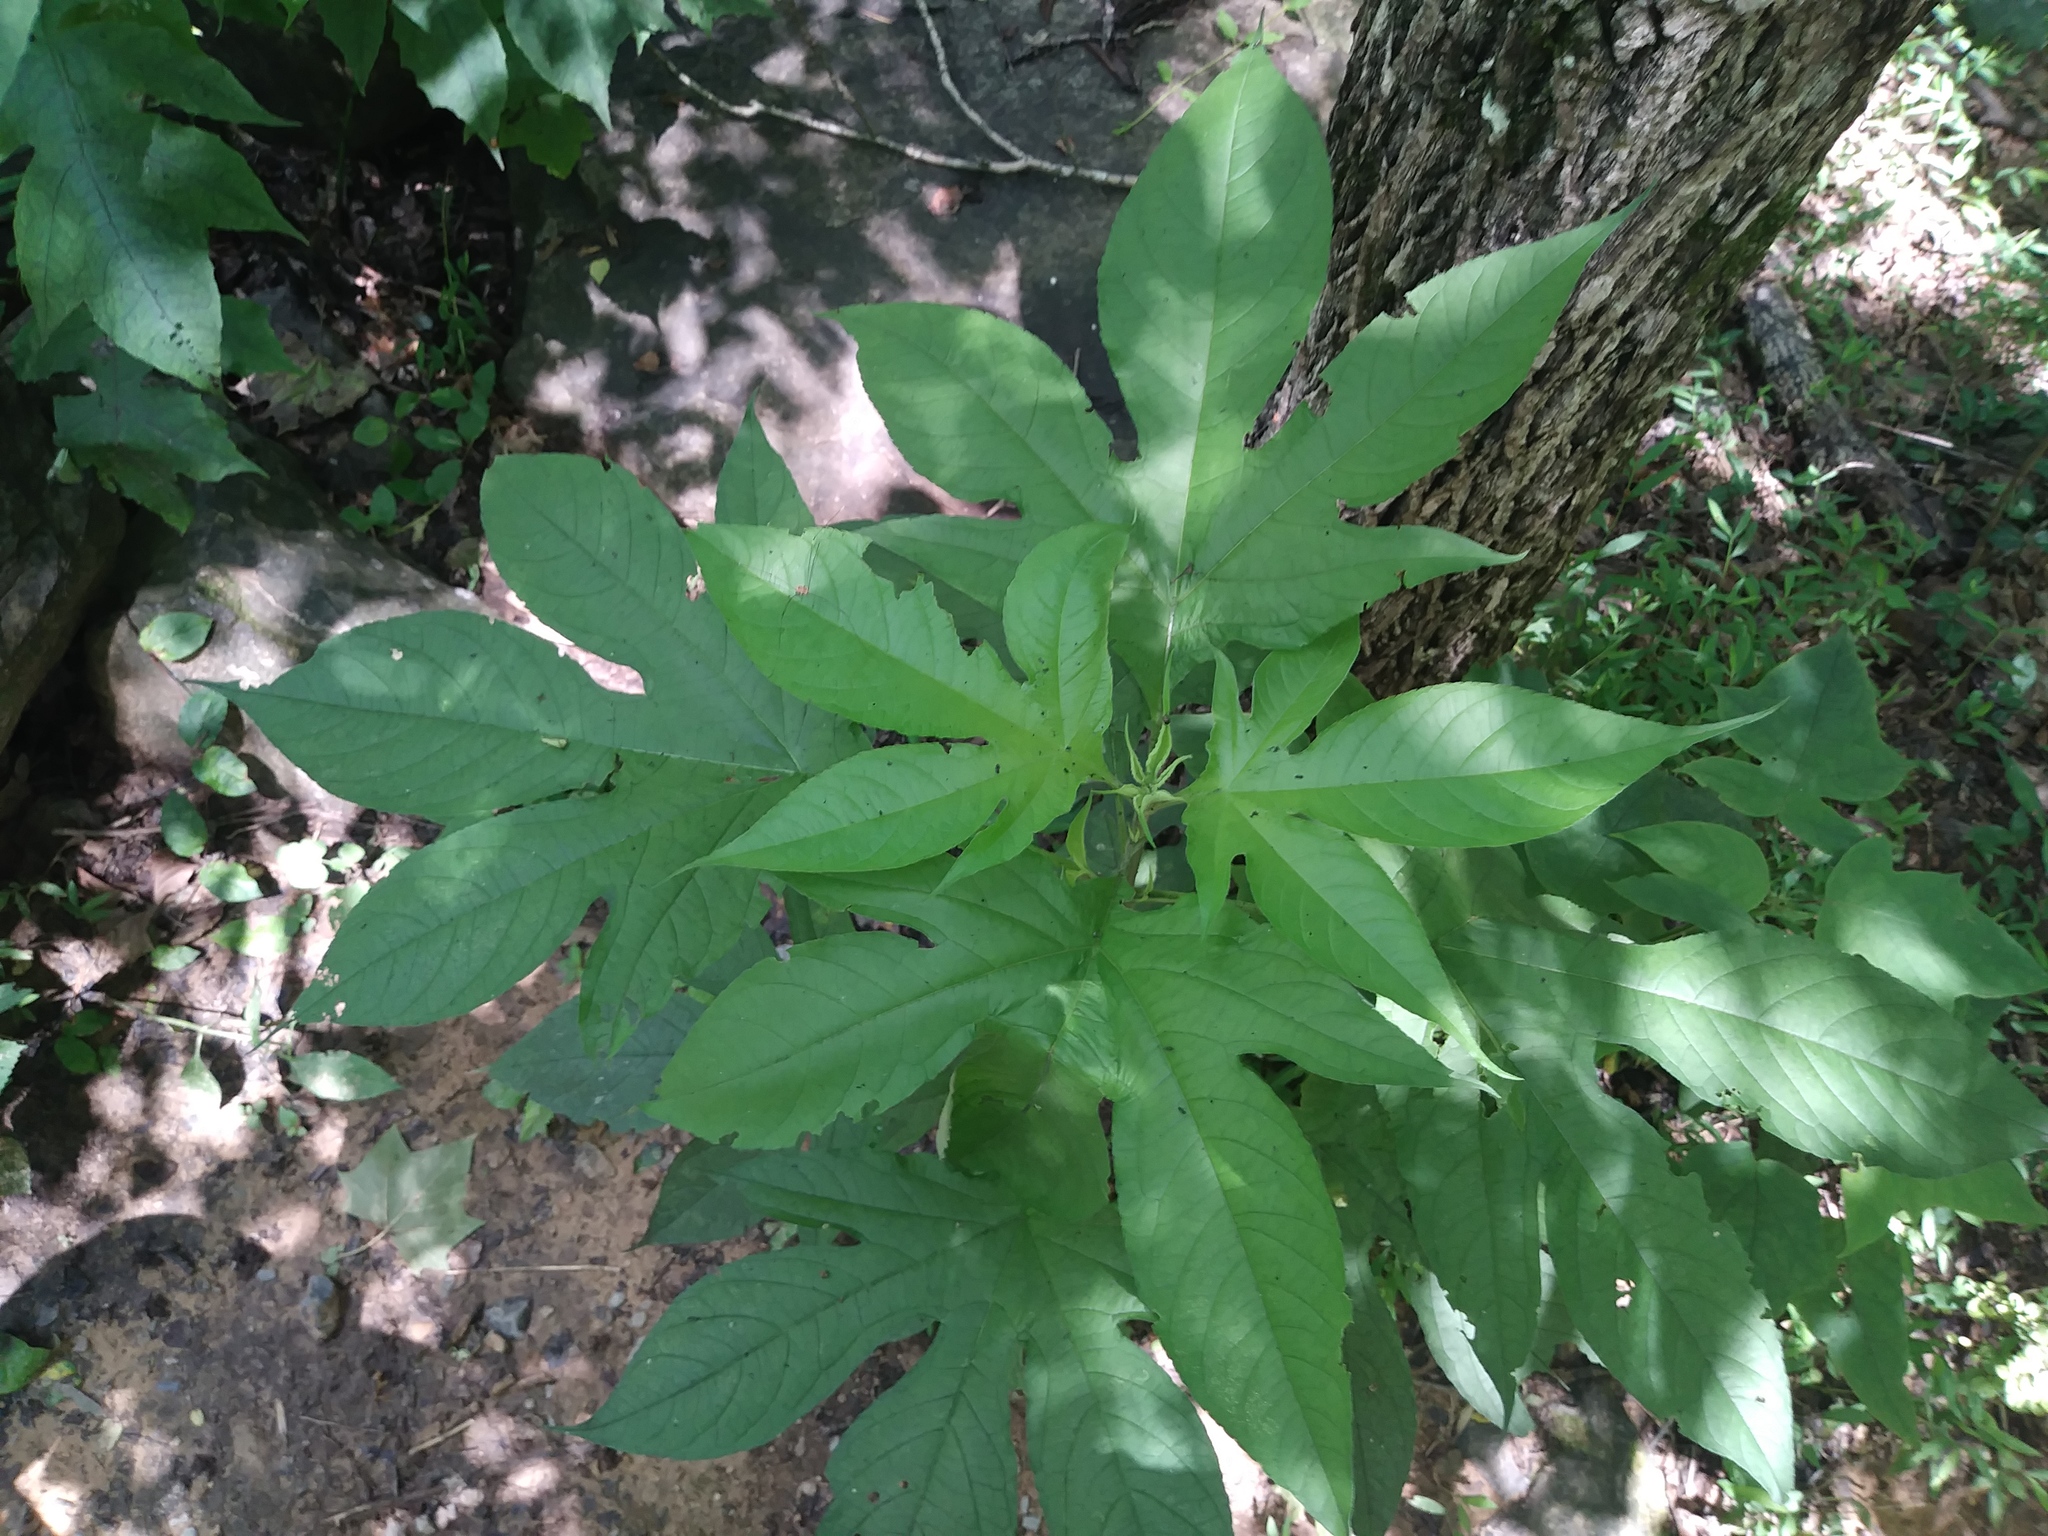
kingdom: Plantae
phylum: Tracheophyta
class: Magnoliopsida
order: Asterales
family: Asteraceae
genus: Ambrosia
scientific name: Ambrosia trifida
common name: Giant ragweed
